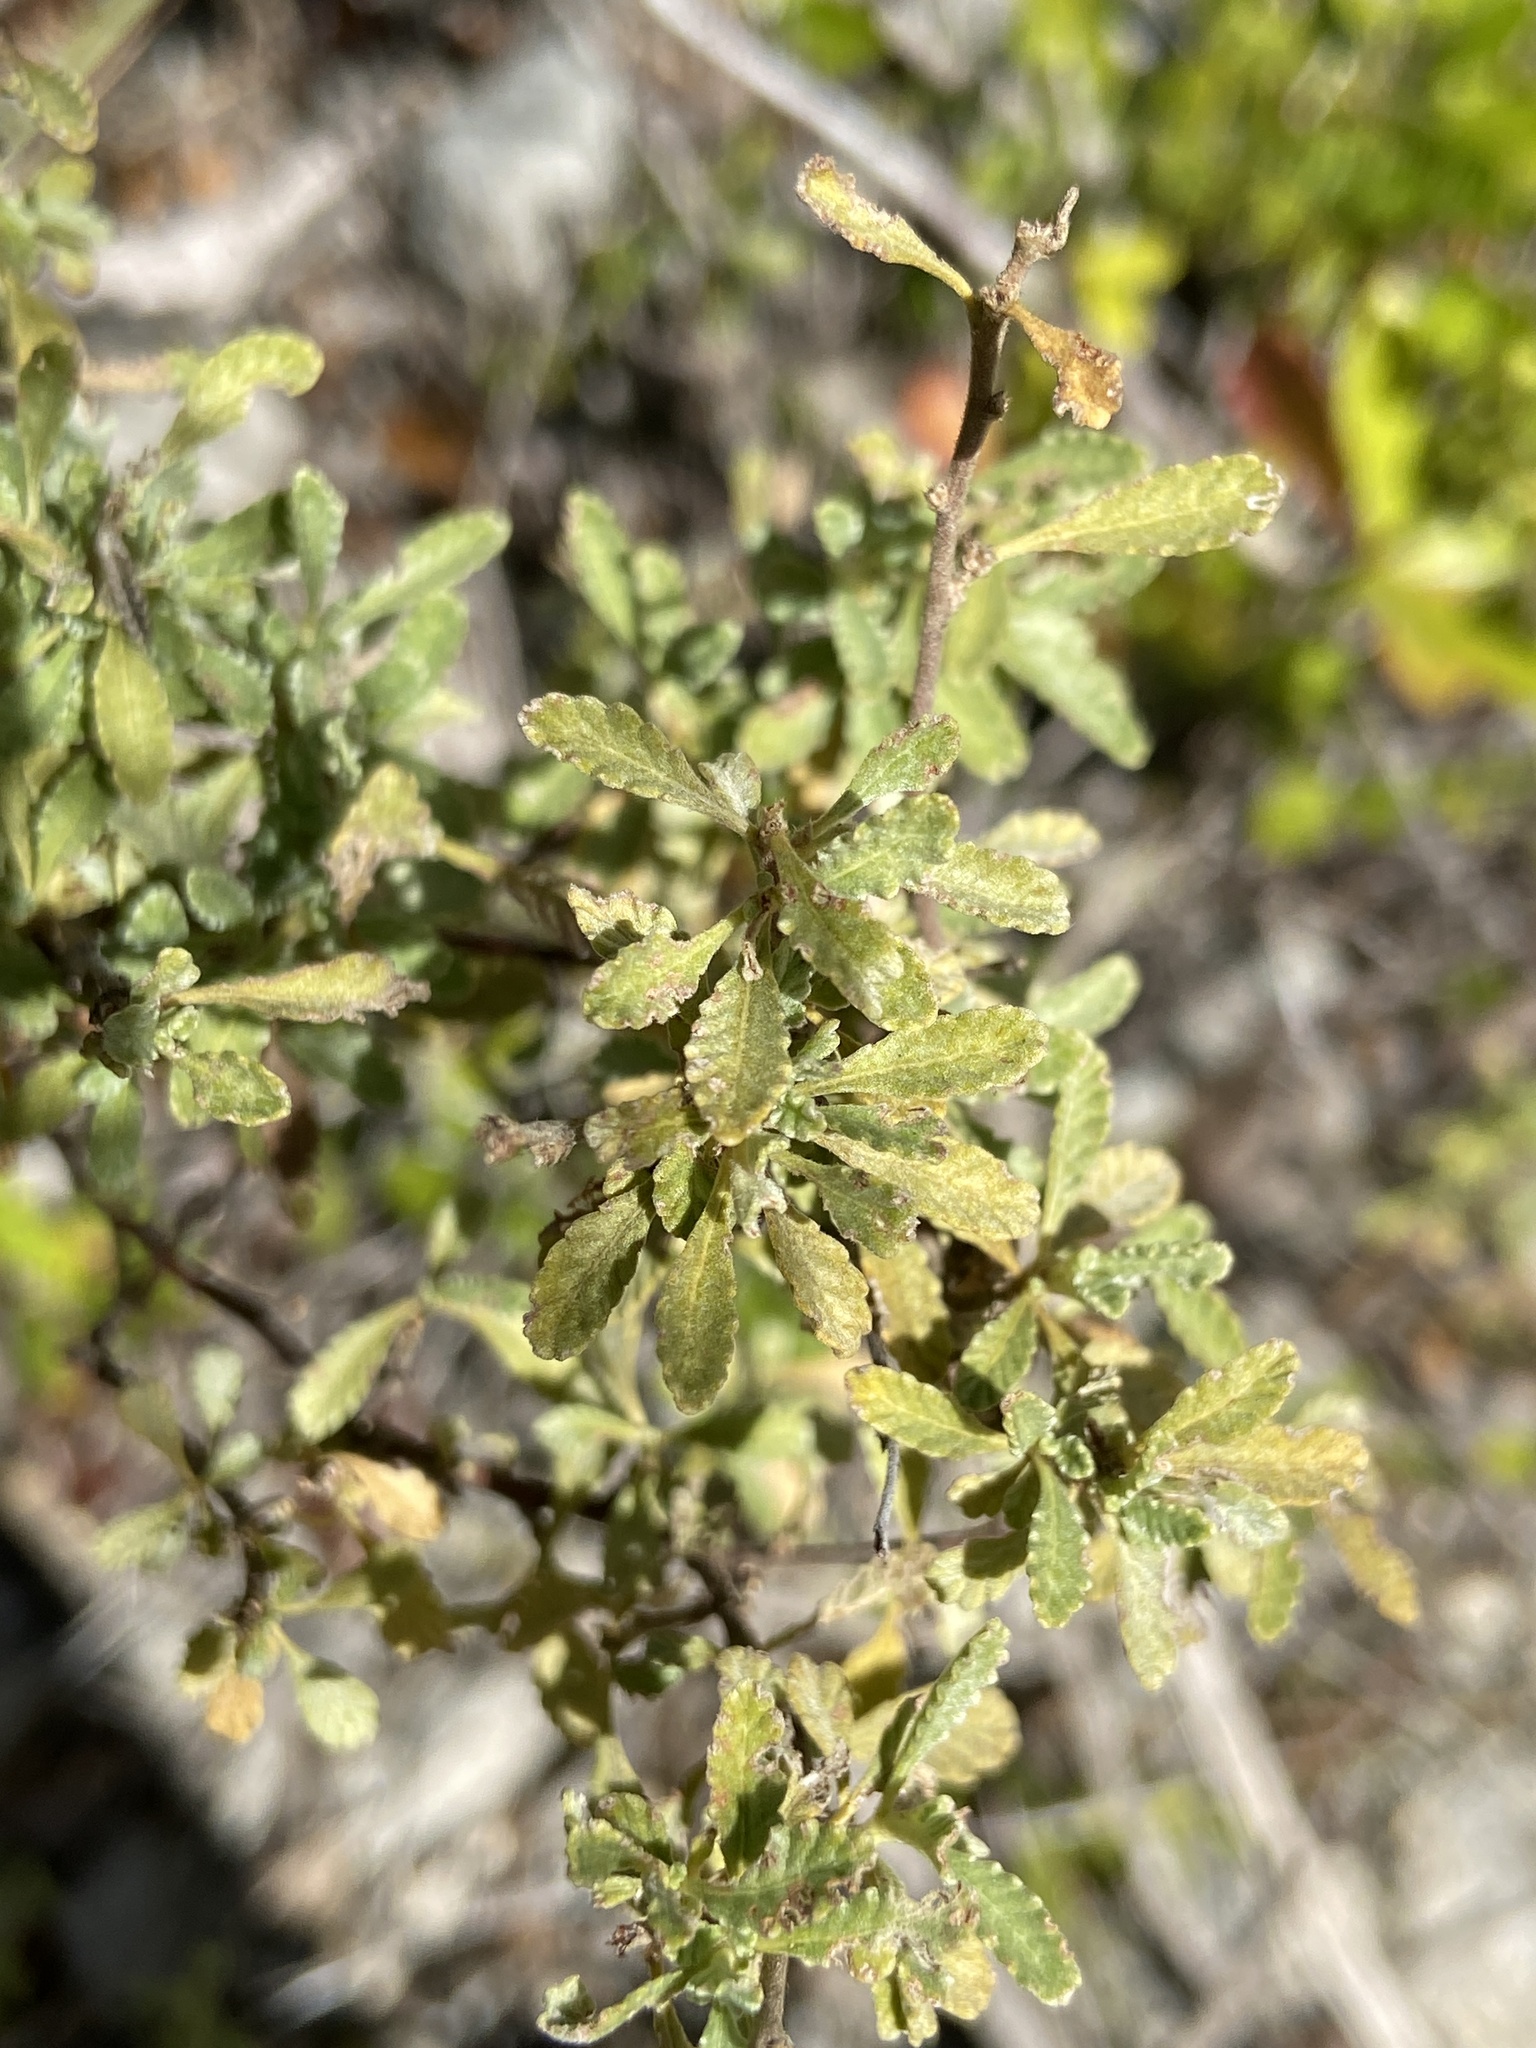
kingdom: Plantae
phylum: Tracheophyta
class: Magnoliopsida
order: Malpighiales
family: Turneraceae
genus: Turnera
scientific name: Turnera diffusa
